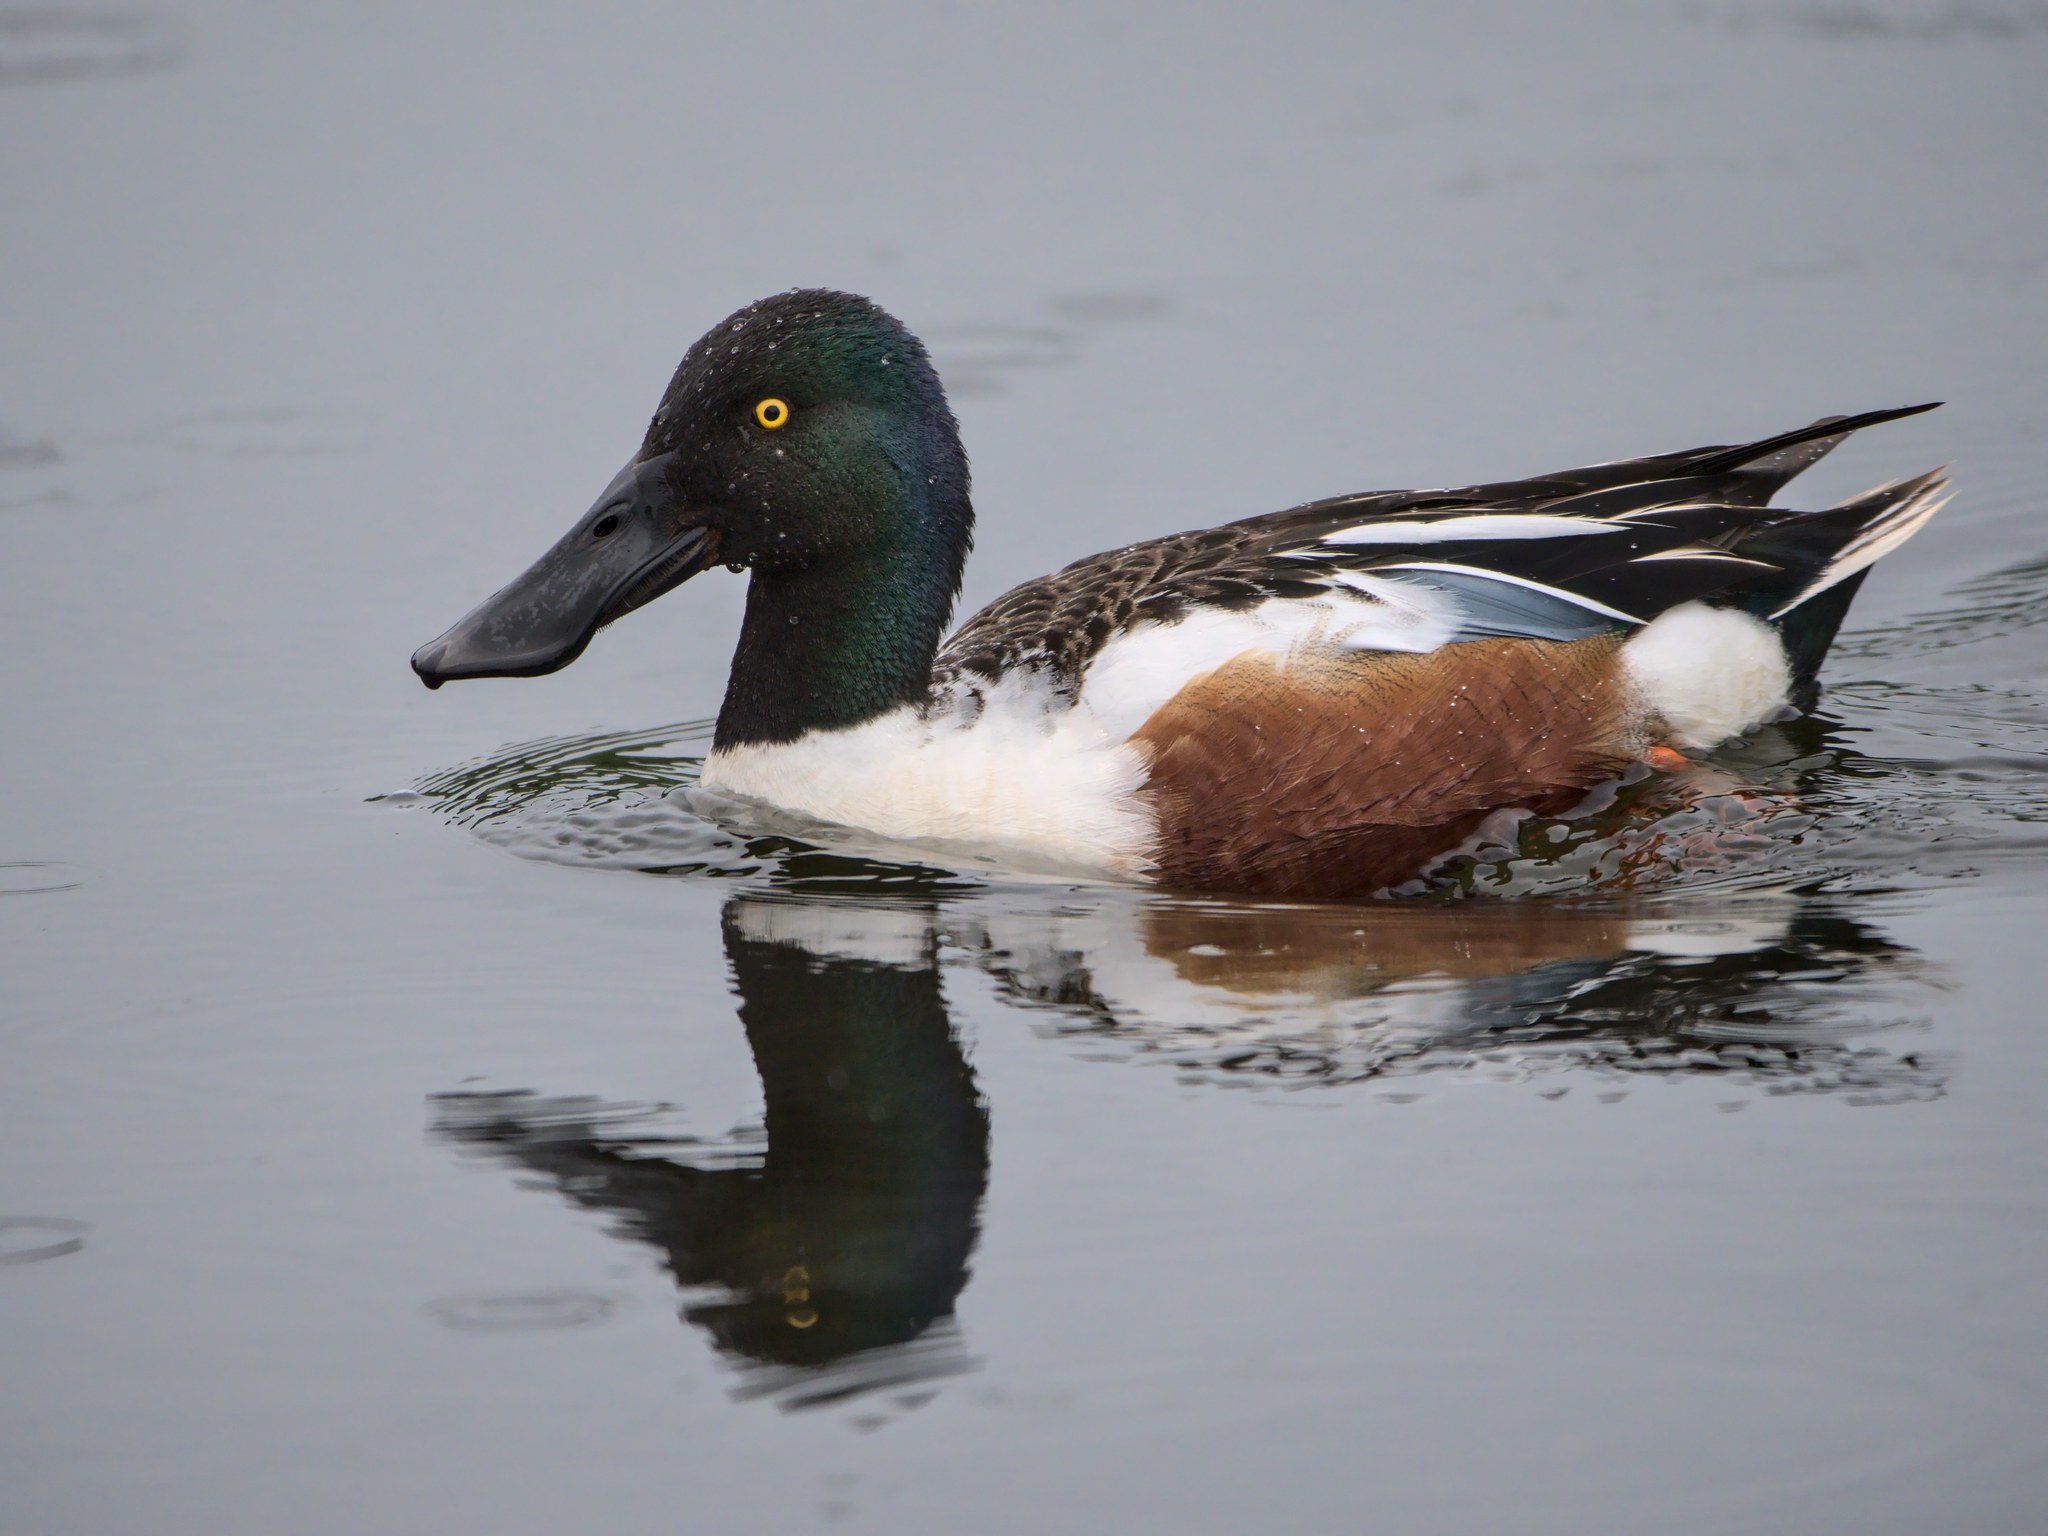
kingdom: Animalia
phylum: Chordata
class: Aves
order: Anseriformes
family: Anatidae
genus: Spatula
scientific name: Spatula clypeata
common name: Northern shoveler
